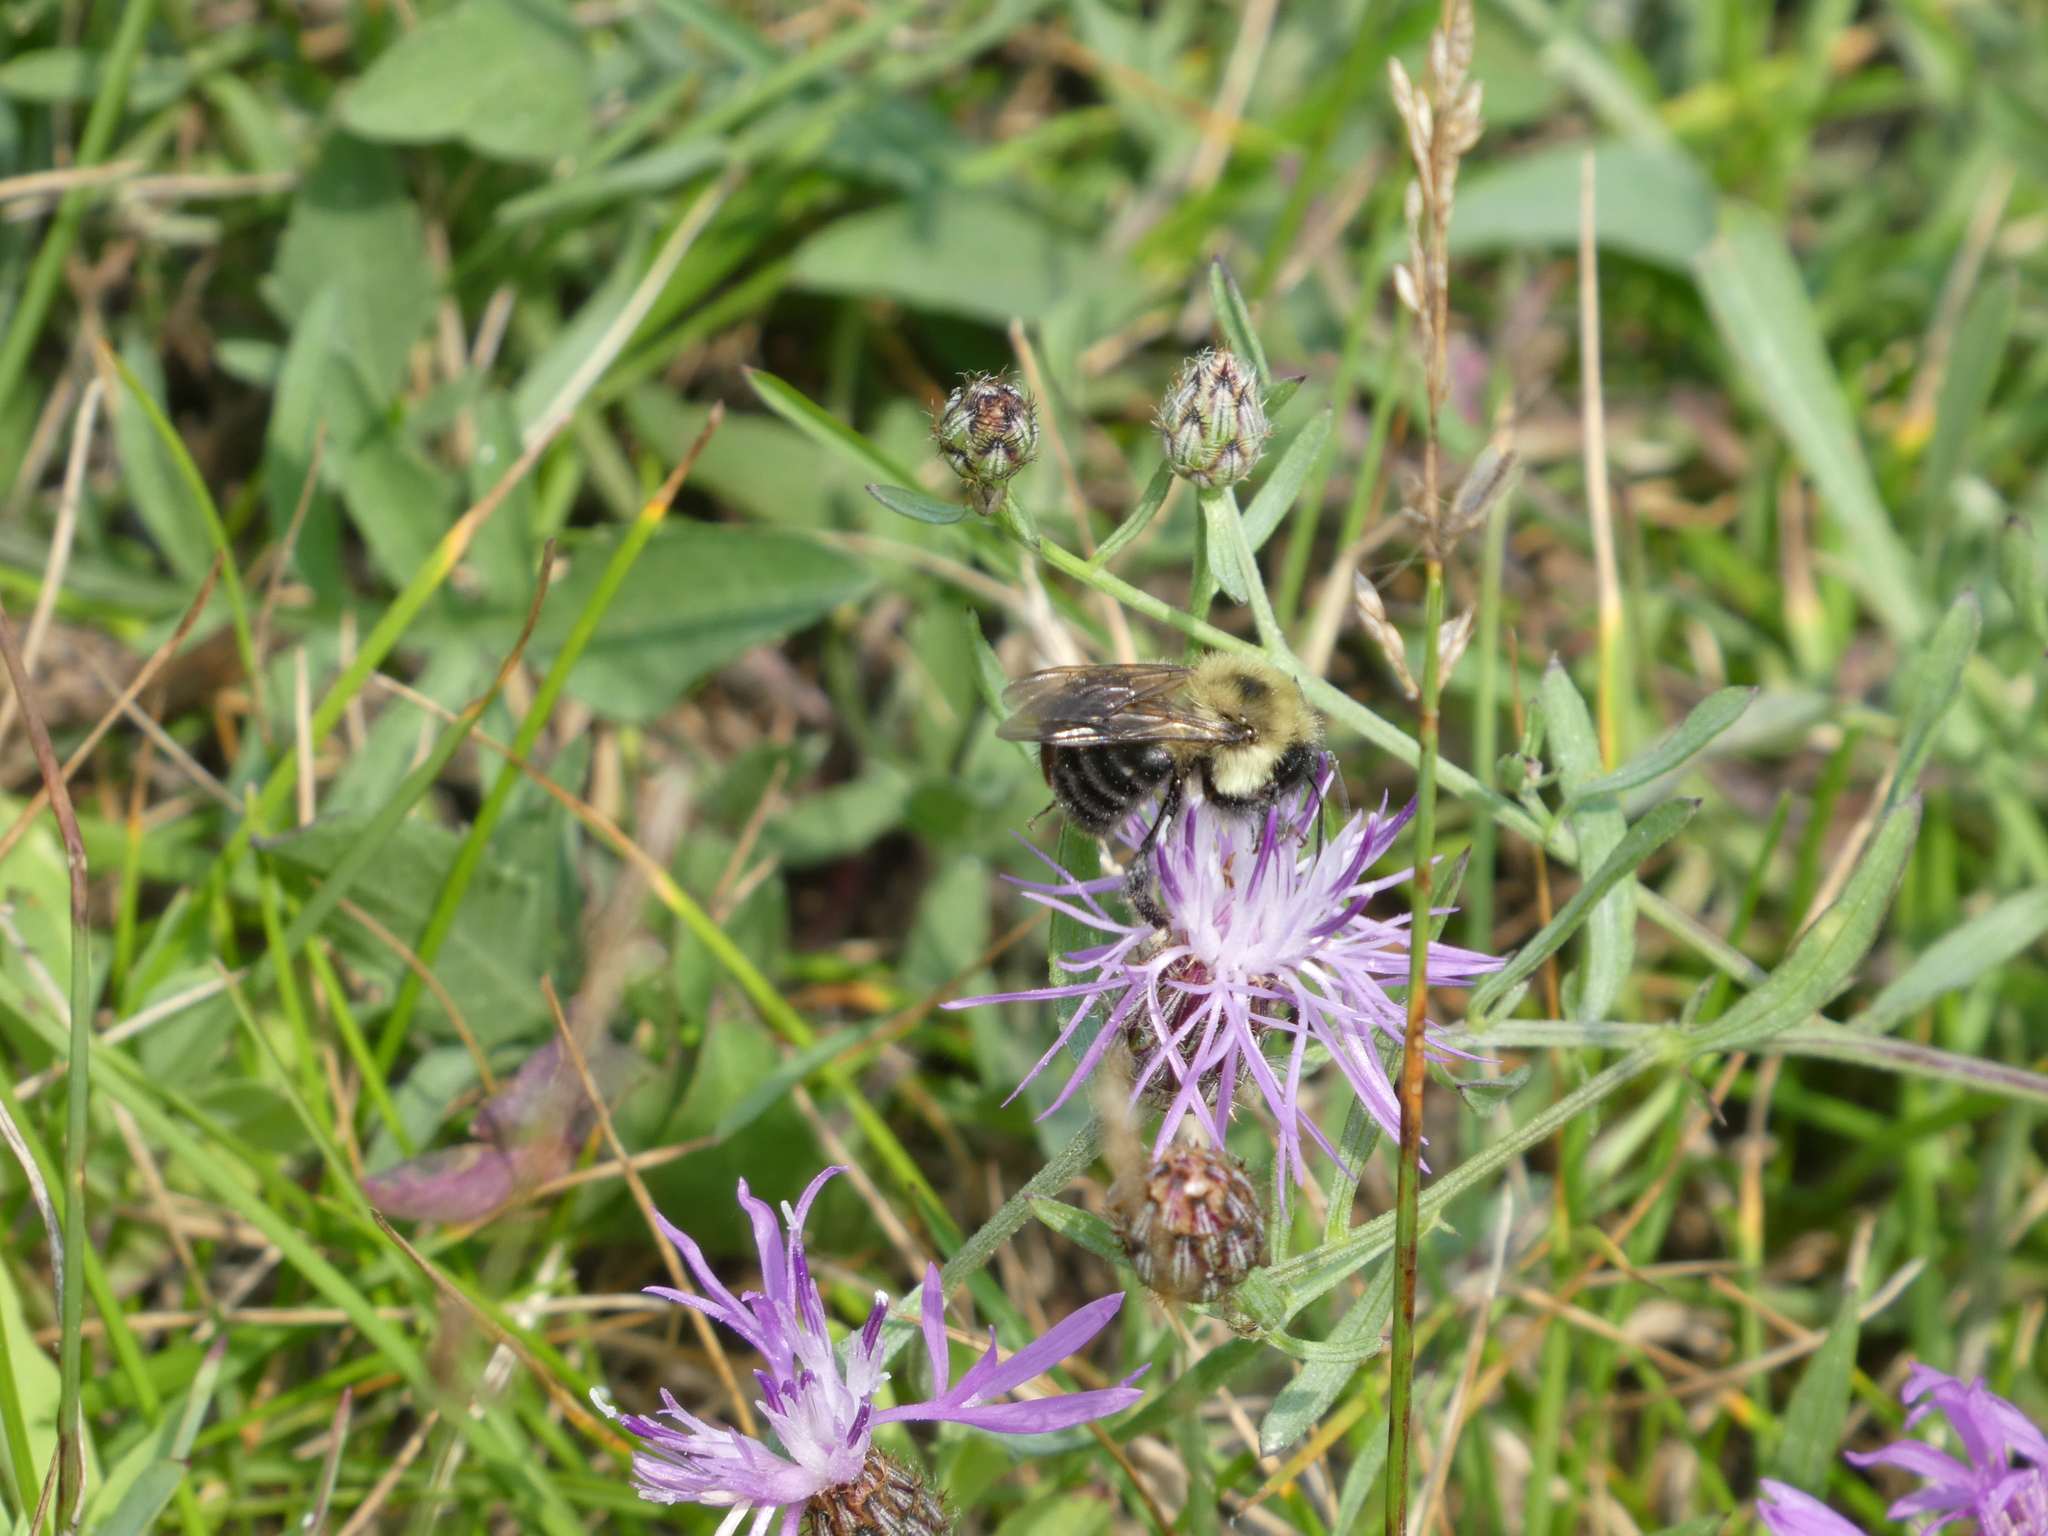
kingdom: Animalia
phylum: Arthropoda
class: Insecta
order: Hymenoptera
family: Apidae
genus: Bombus
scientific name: Bombus bimaculatus
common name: Two-spotted bumble bee
